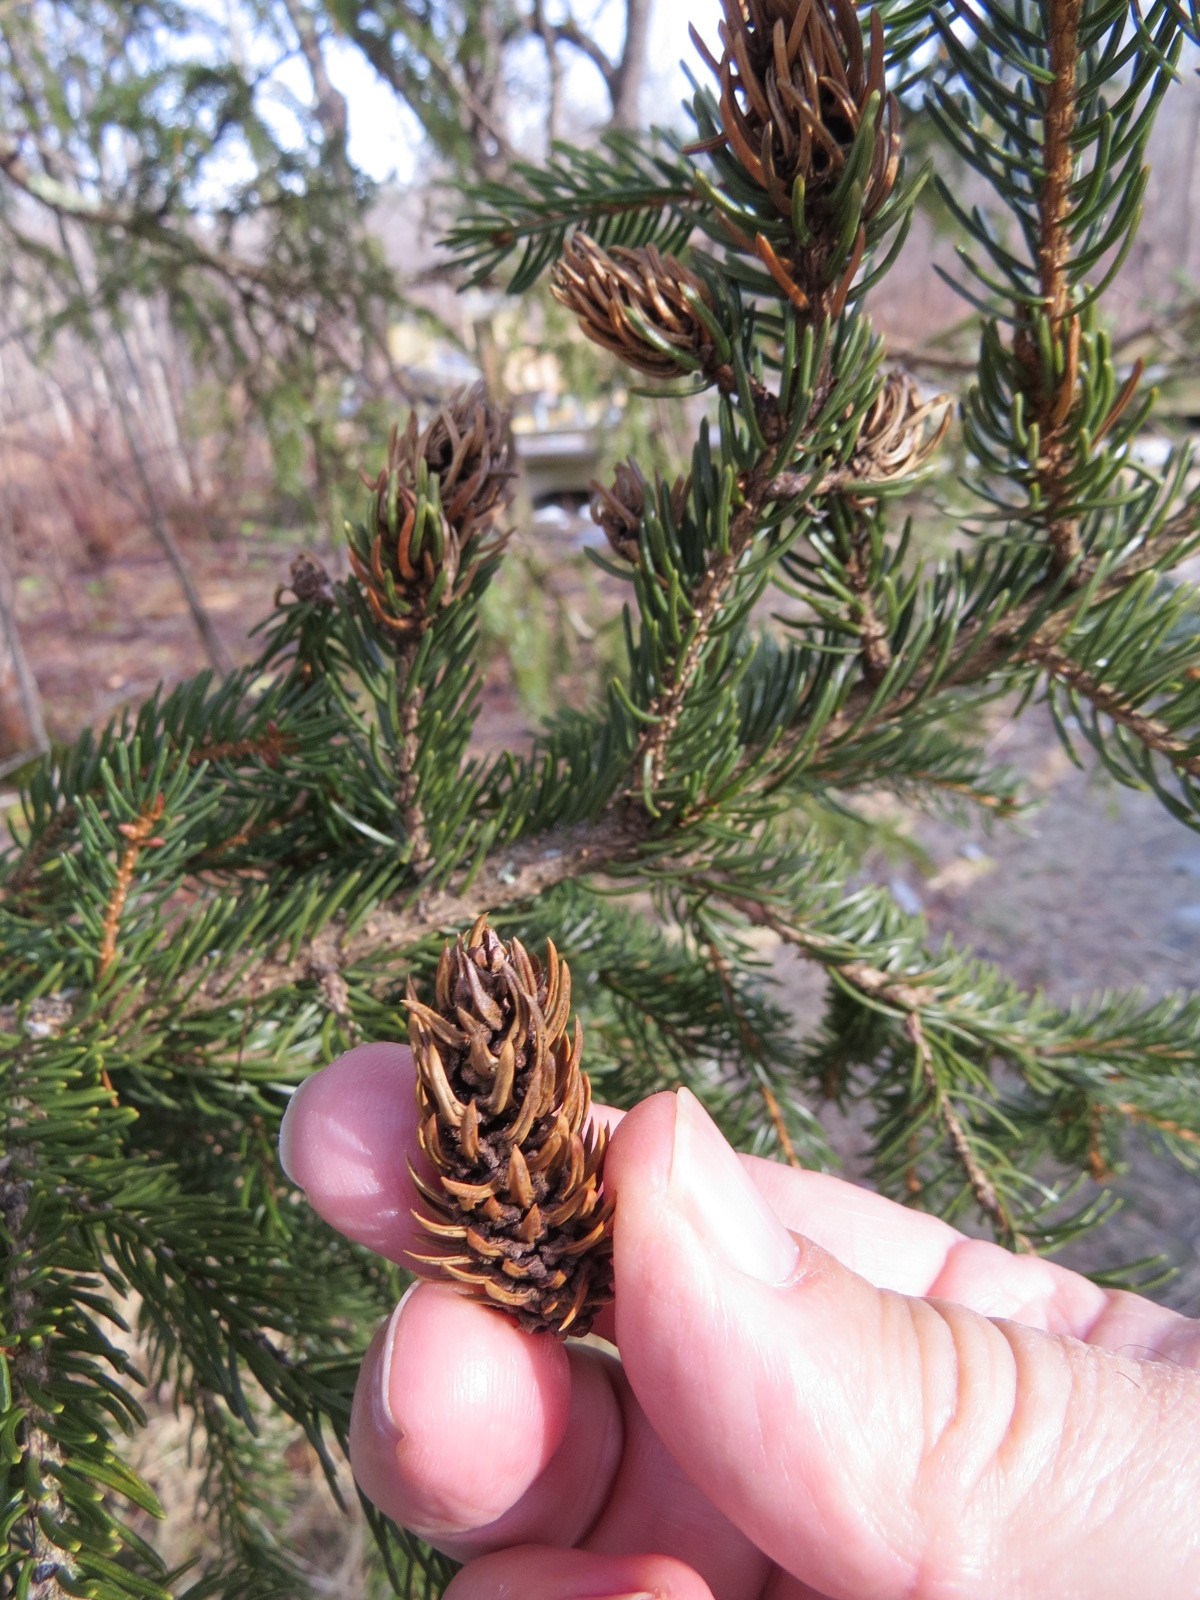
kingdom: Animalia
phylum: Arthropoda
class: Insecta
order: Hemiptera
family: Adelgidae
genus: Adelges
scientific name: Adelges abietis
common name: Eastern spruce gall adelgid
